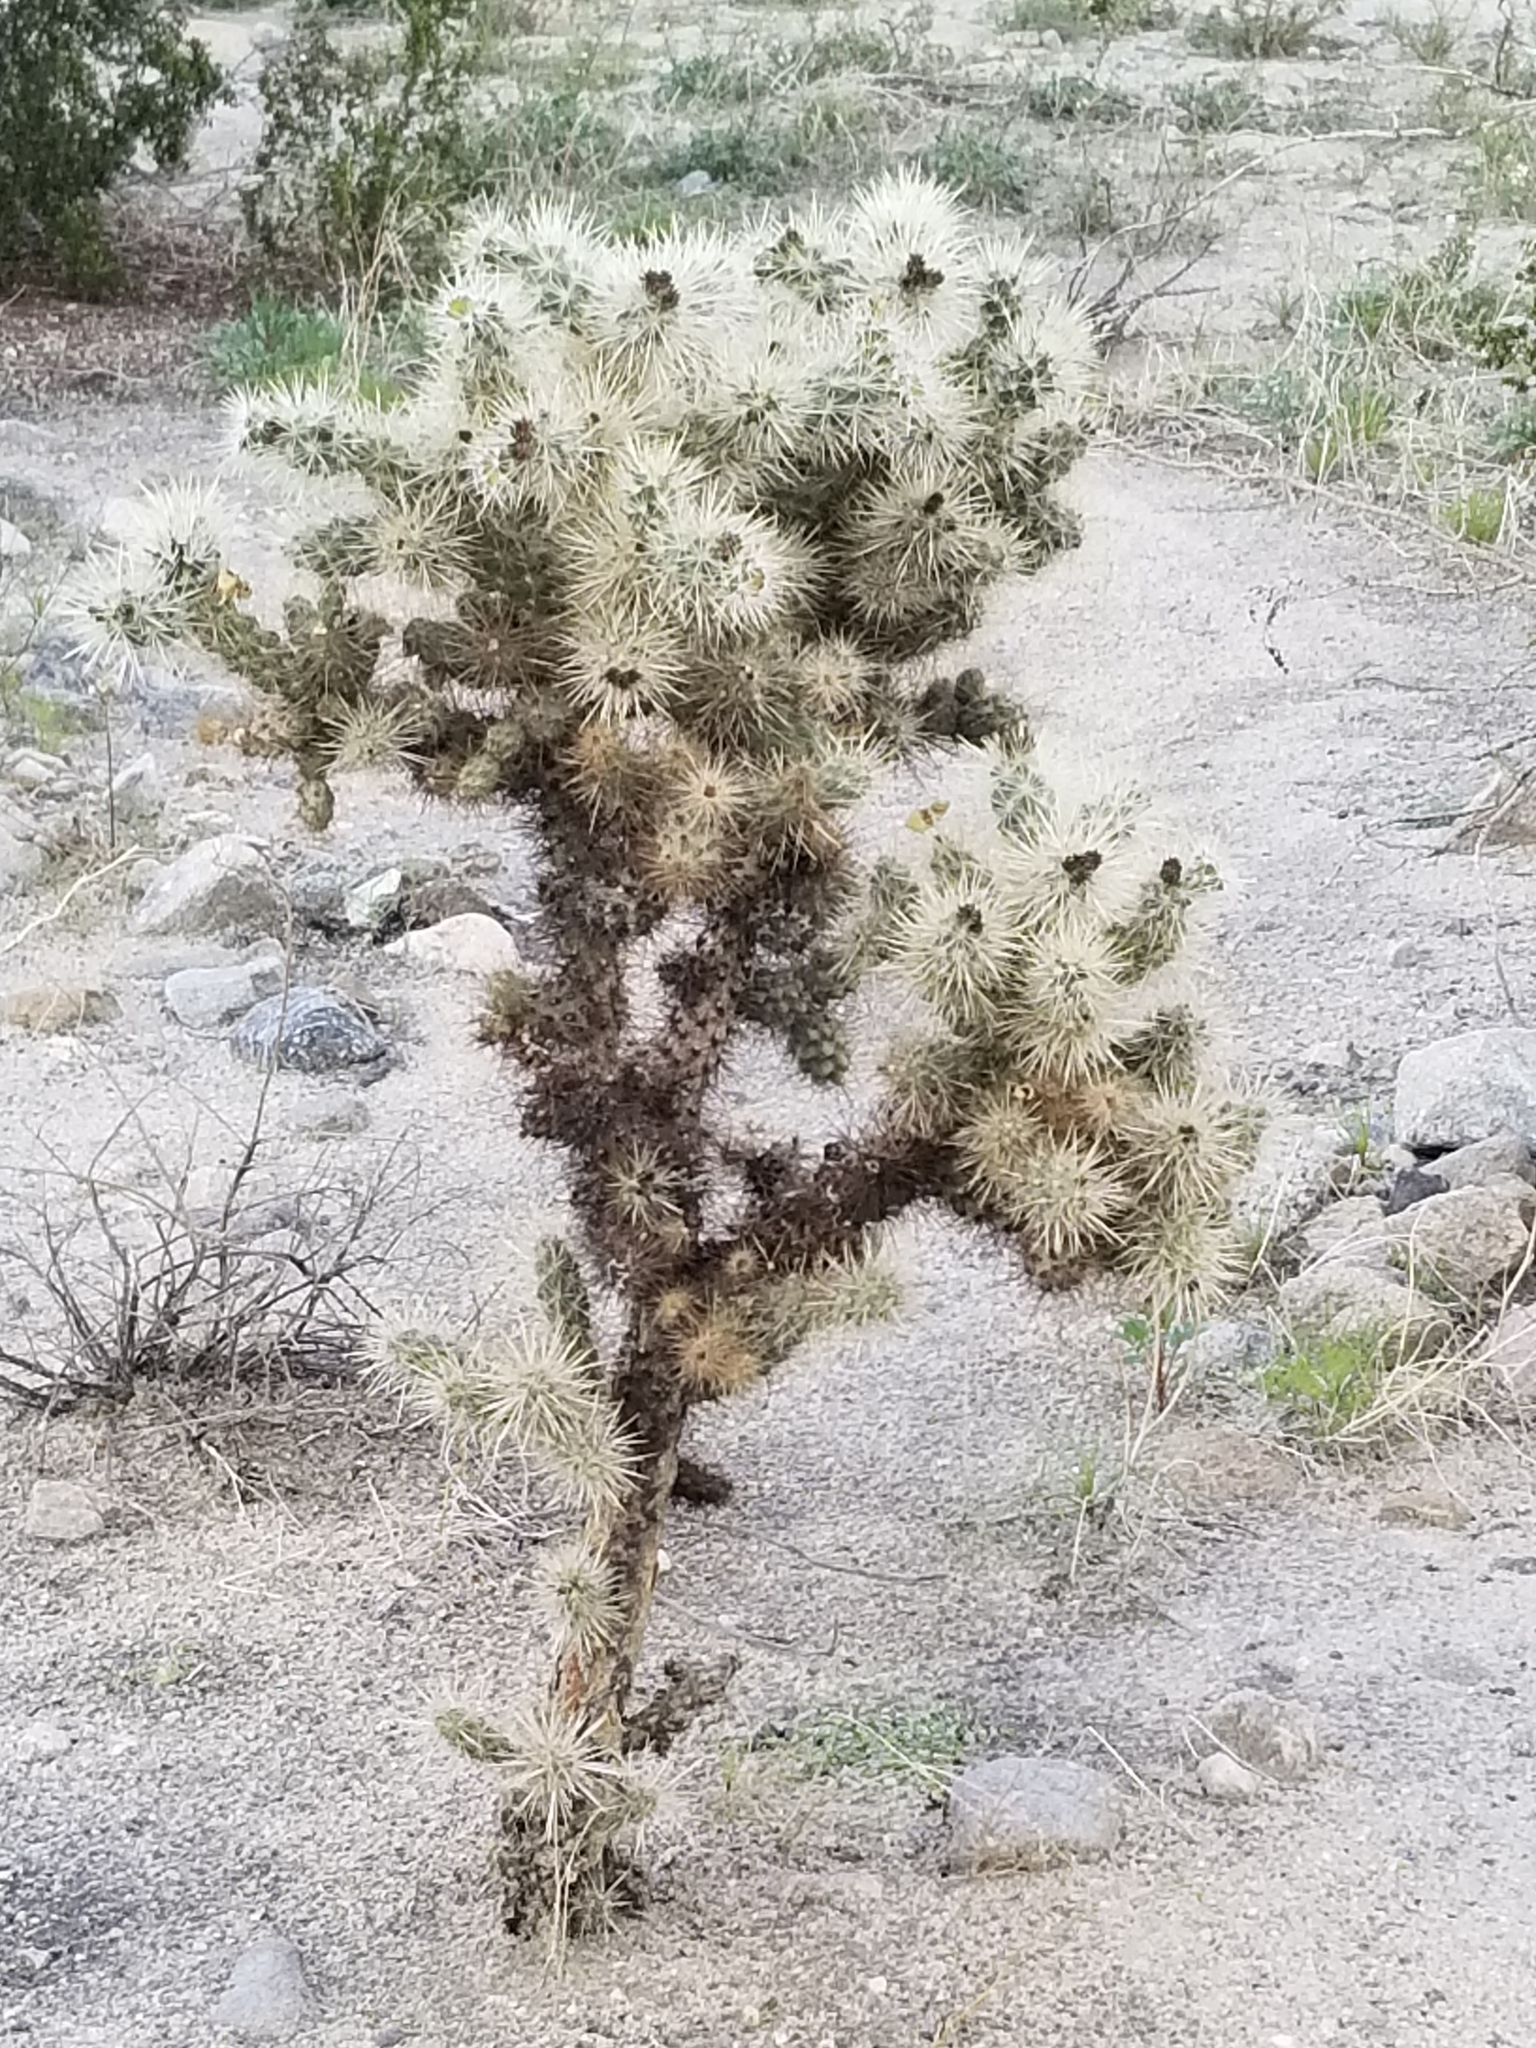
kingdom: Plantae
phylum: Tracheophyta
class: Magnoliopsida
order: Caryophyllales
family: Cactaceae
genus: Cylindropuntia
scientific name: Cylindropuntia echinocarpa
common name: Ground cholla
